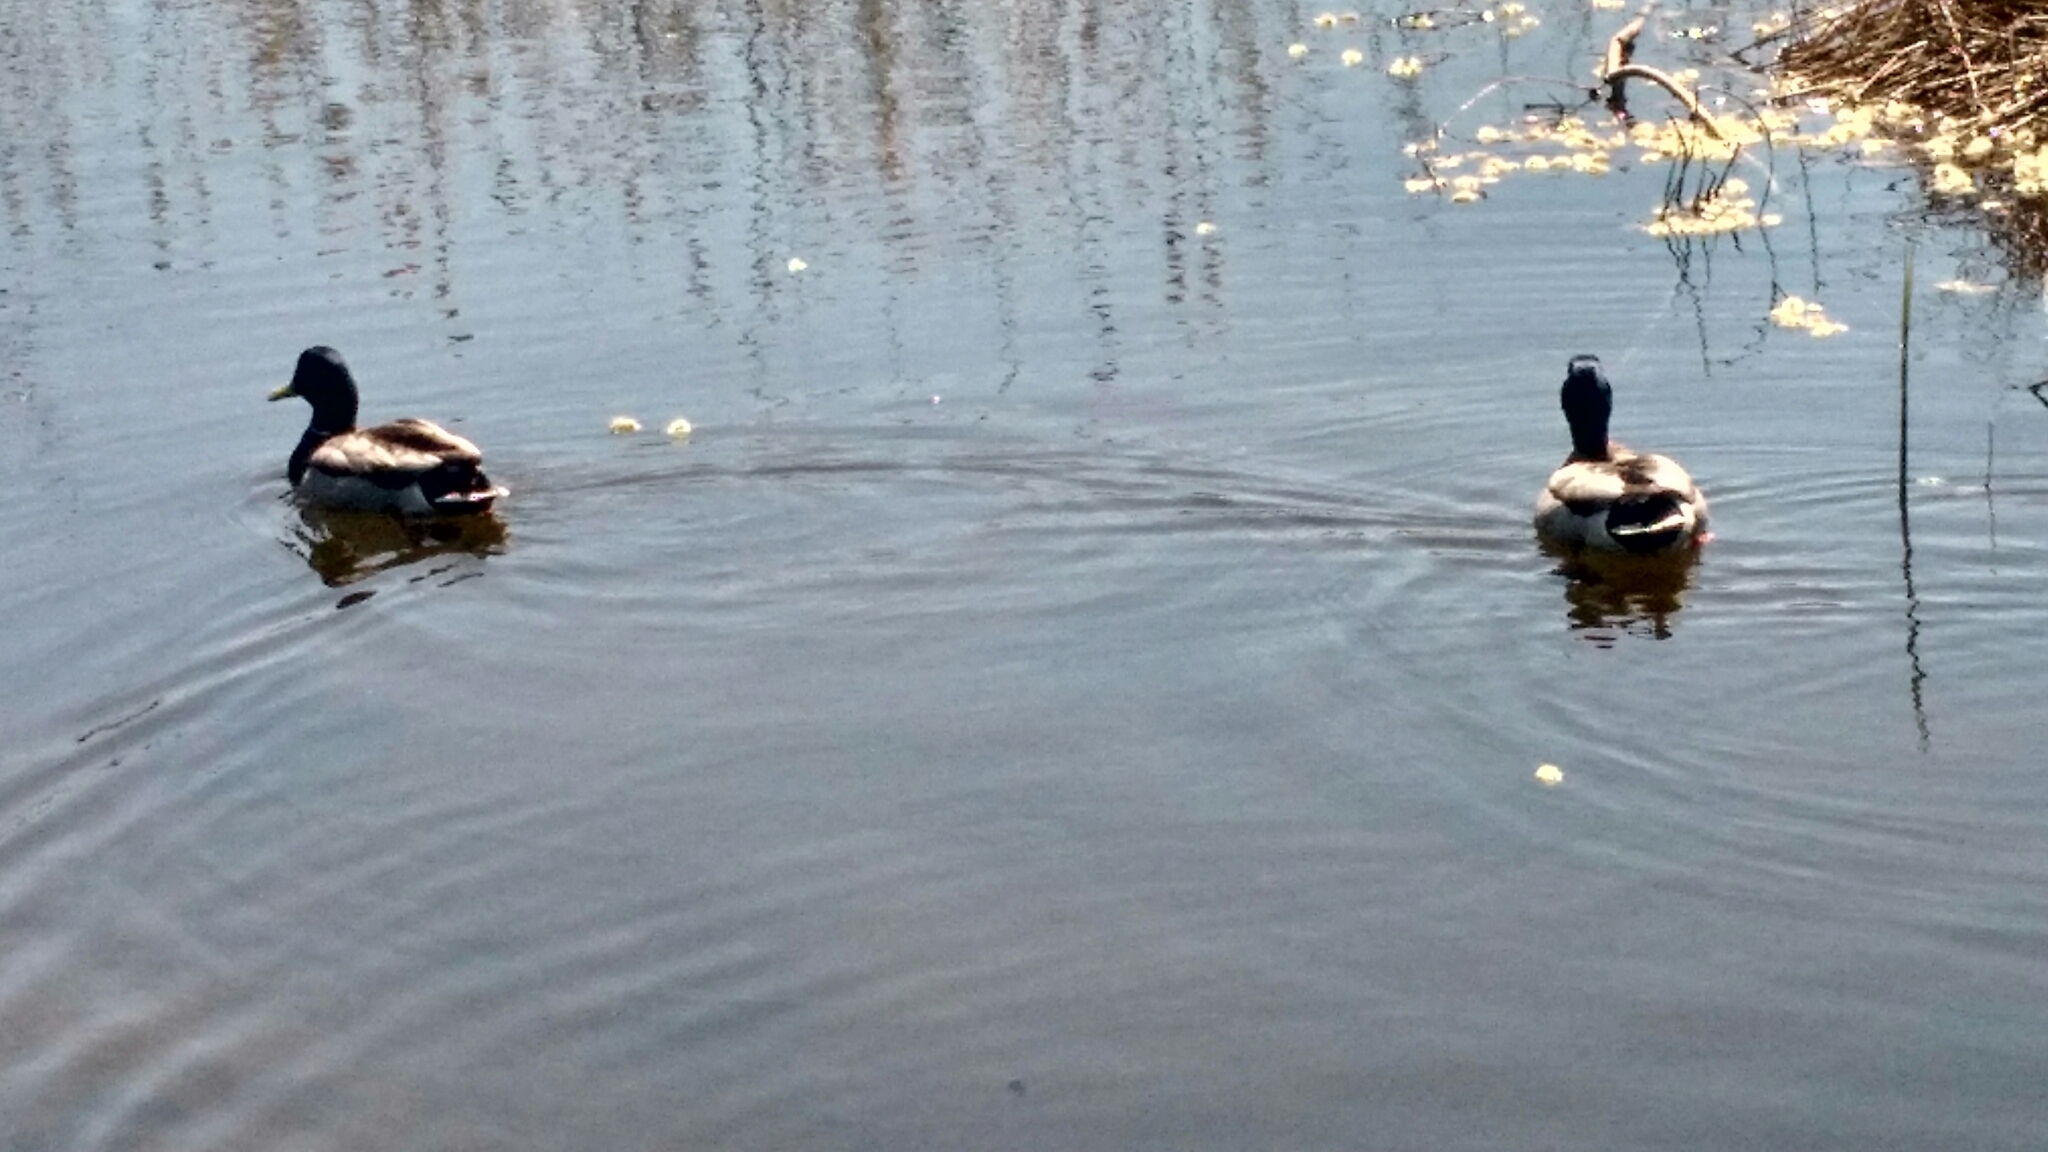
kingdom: Animalia
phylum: Chordata
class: Aves
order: Anseriformes
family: Anatidae
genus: Anas
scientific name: Anas platyrhynchos
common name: Mallard
